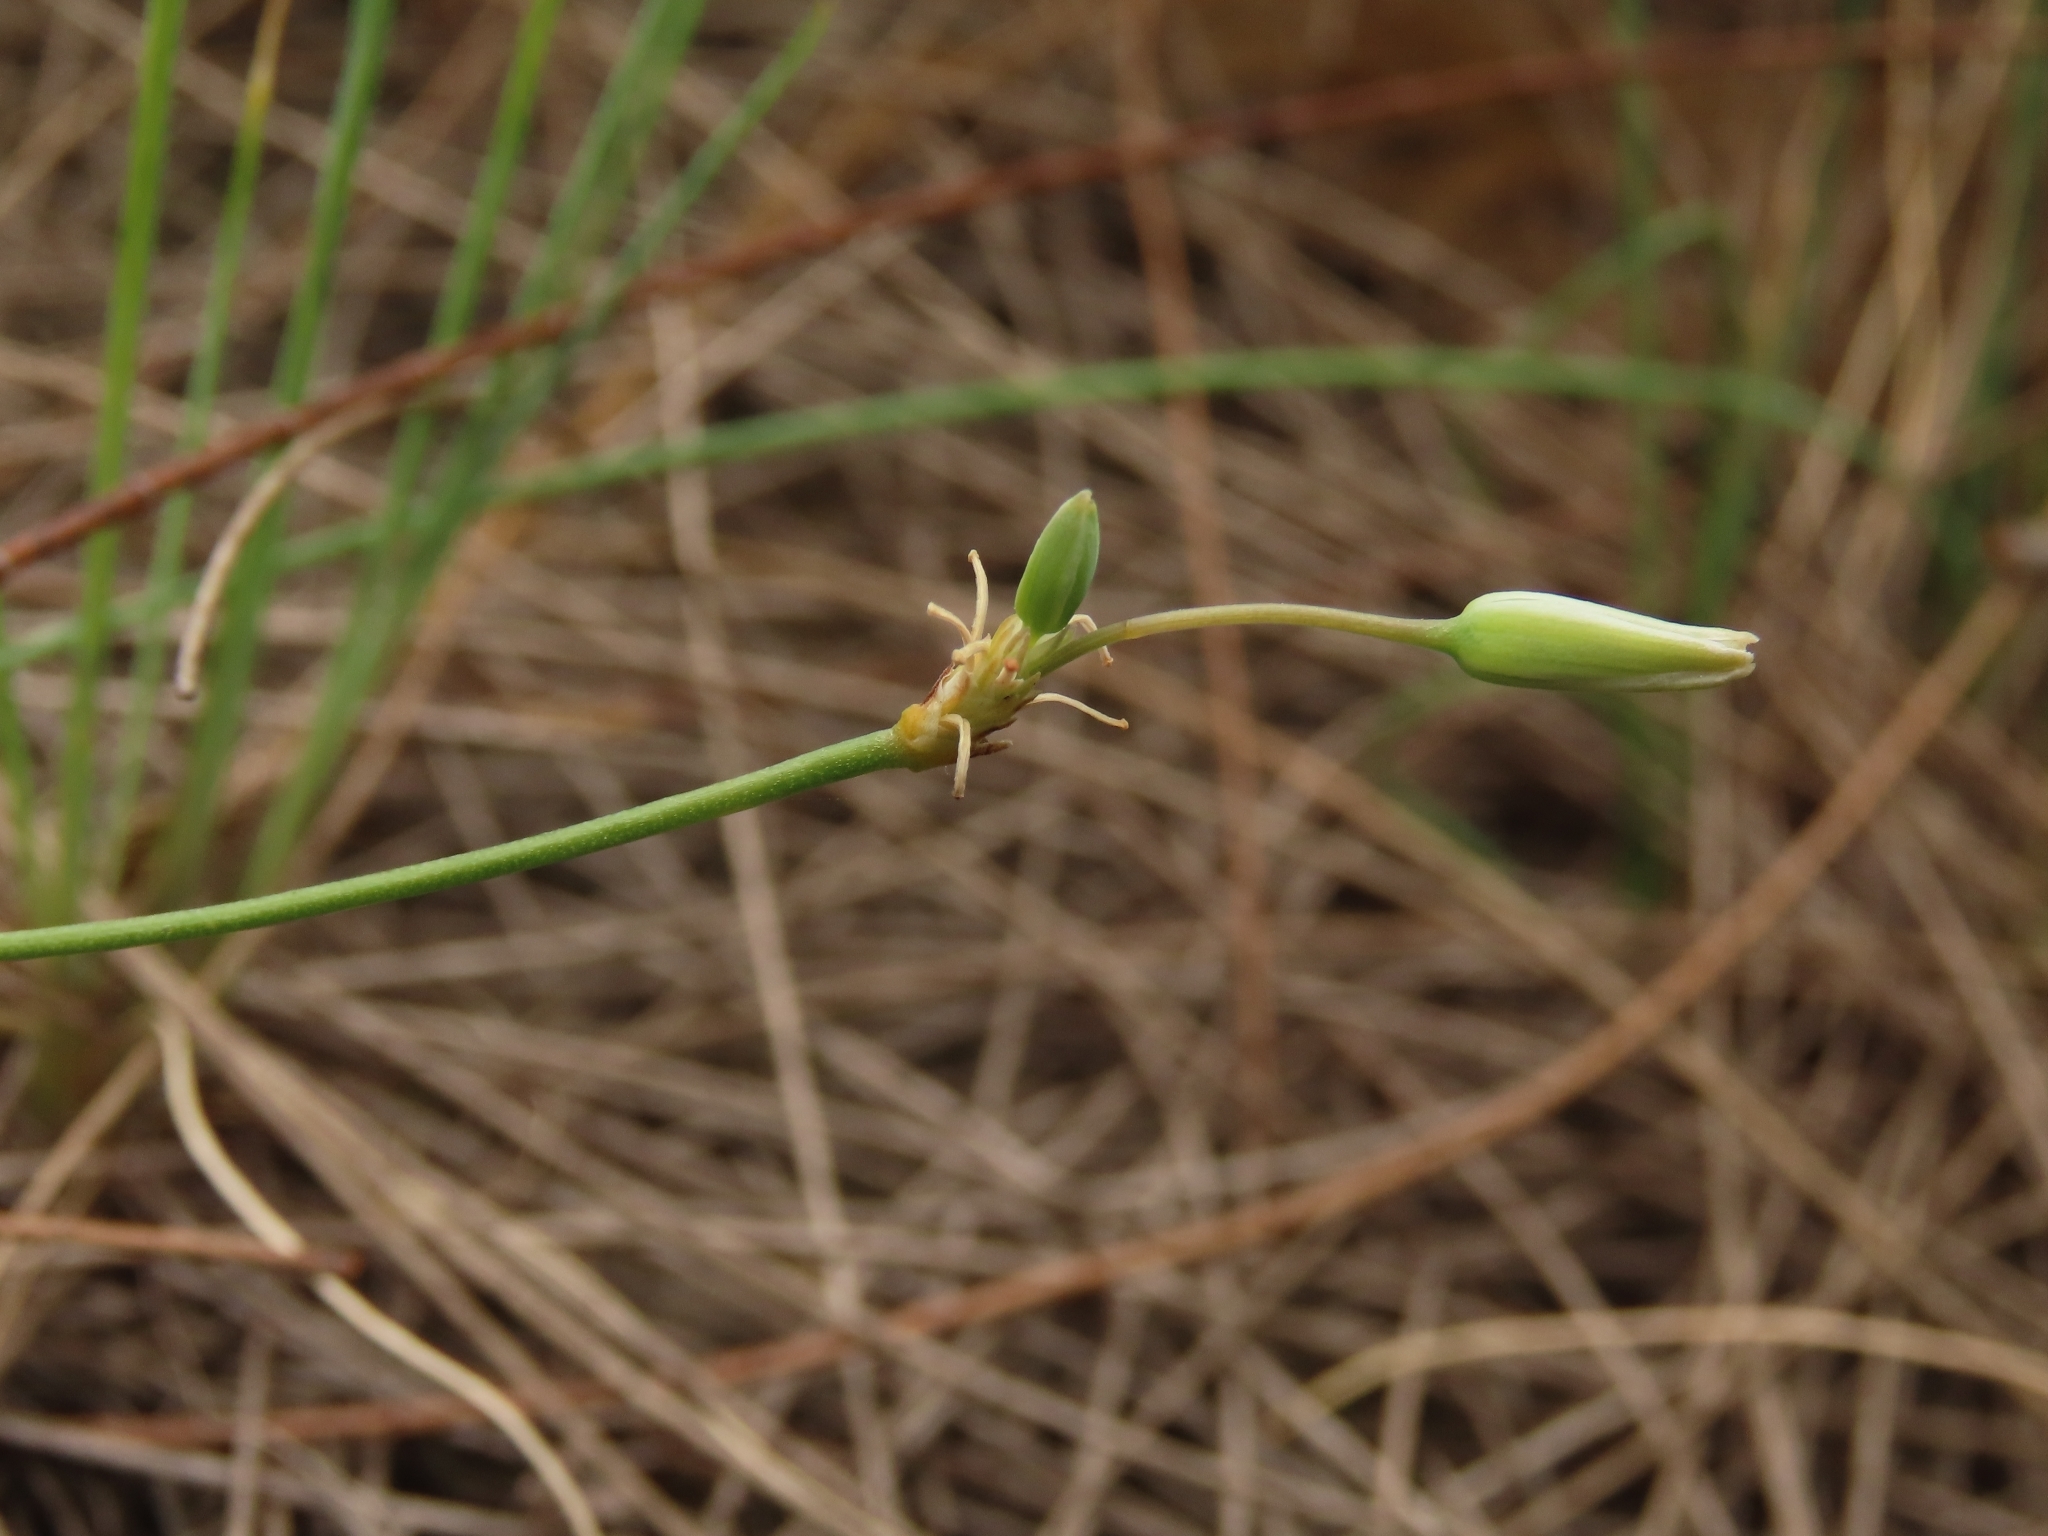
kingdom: Plantae
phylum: Tracheophyta
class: Liliopsida
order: Asparagales
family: Asparagaceae
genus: Thysanotus
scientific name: Thysanotus chinensis
